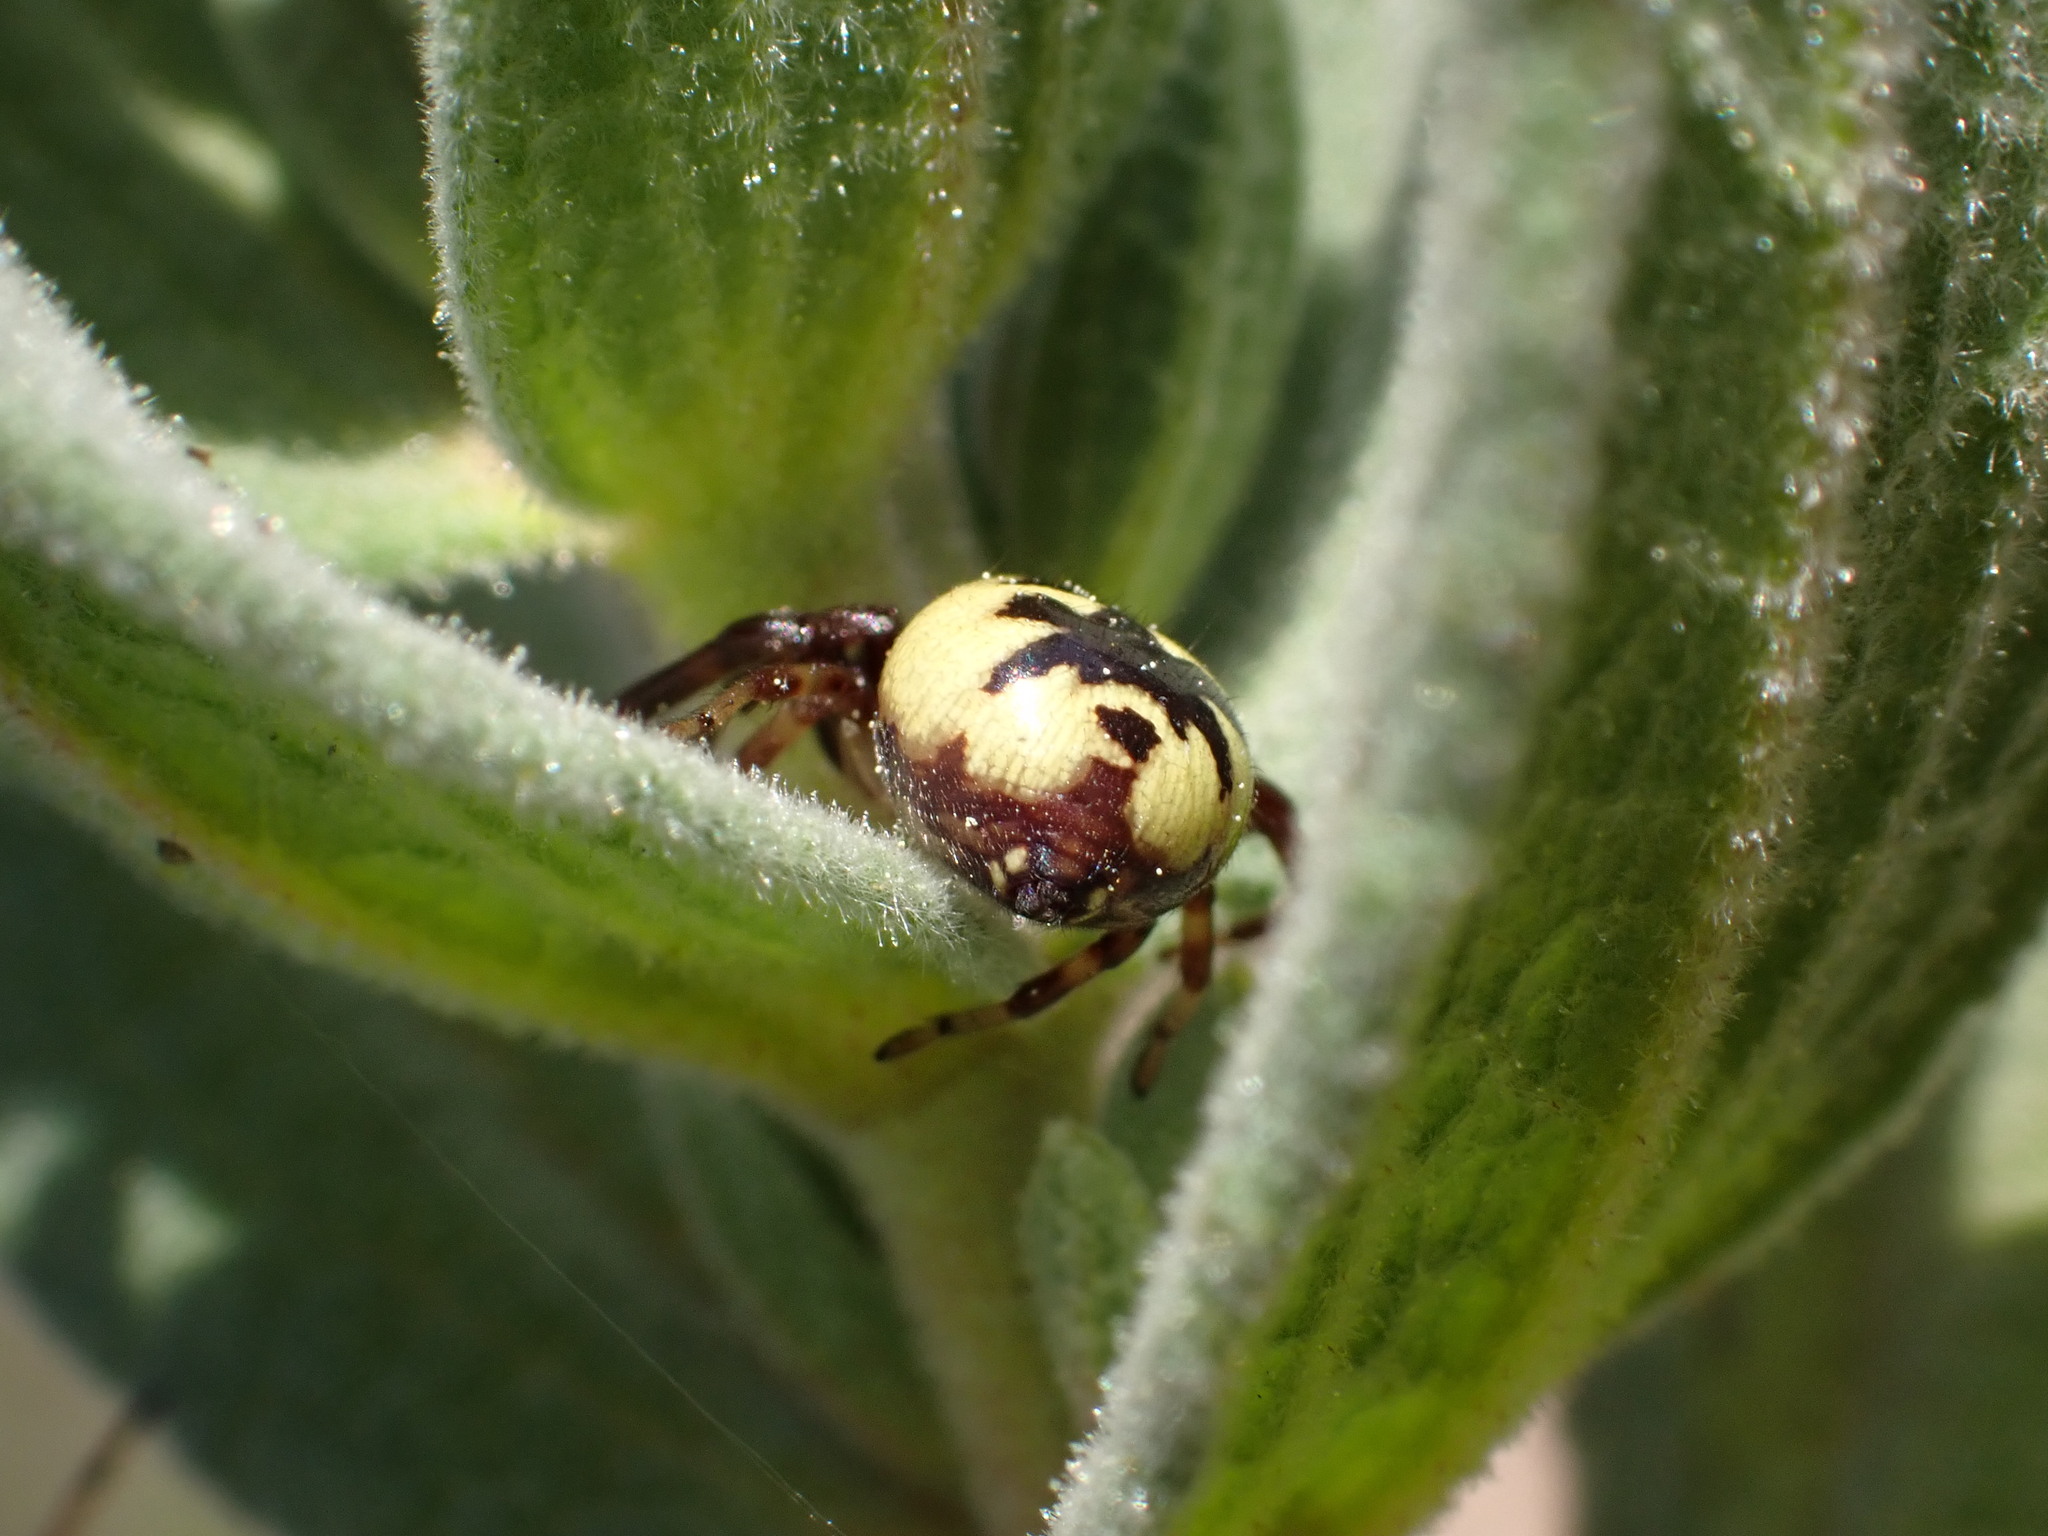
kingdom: Animalia
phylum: Arthropoda
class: Arachnida
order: Araneae
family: Thomisidae
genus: Synema
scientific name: Synema globosum
